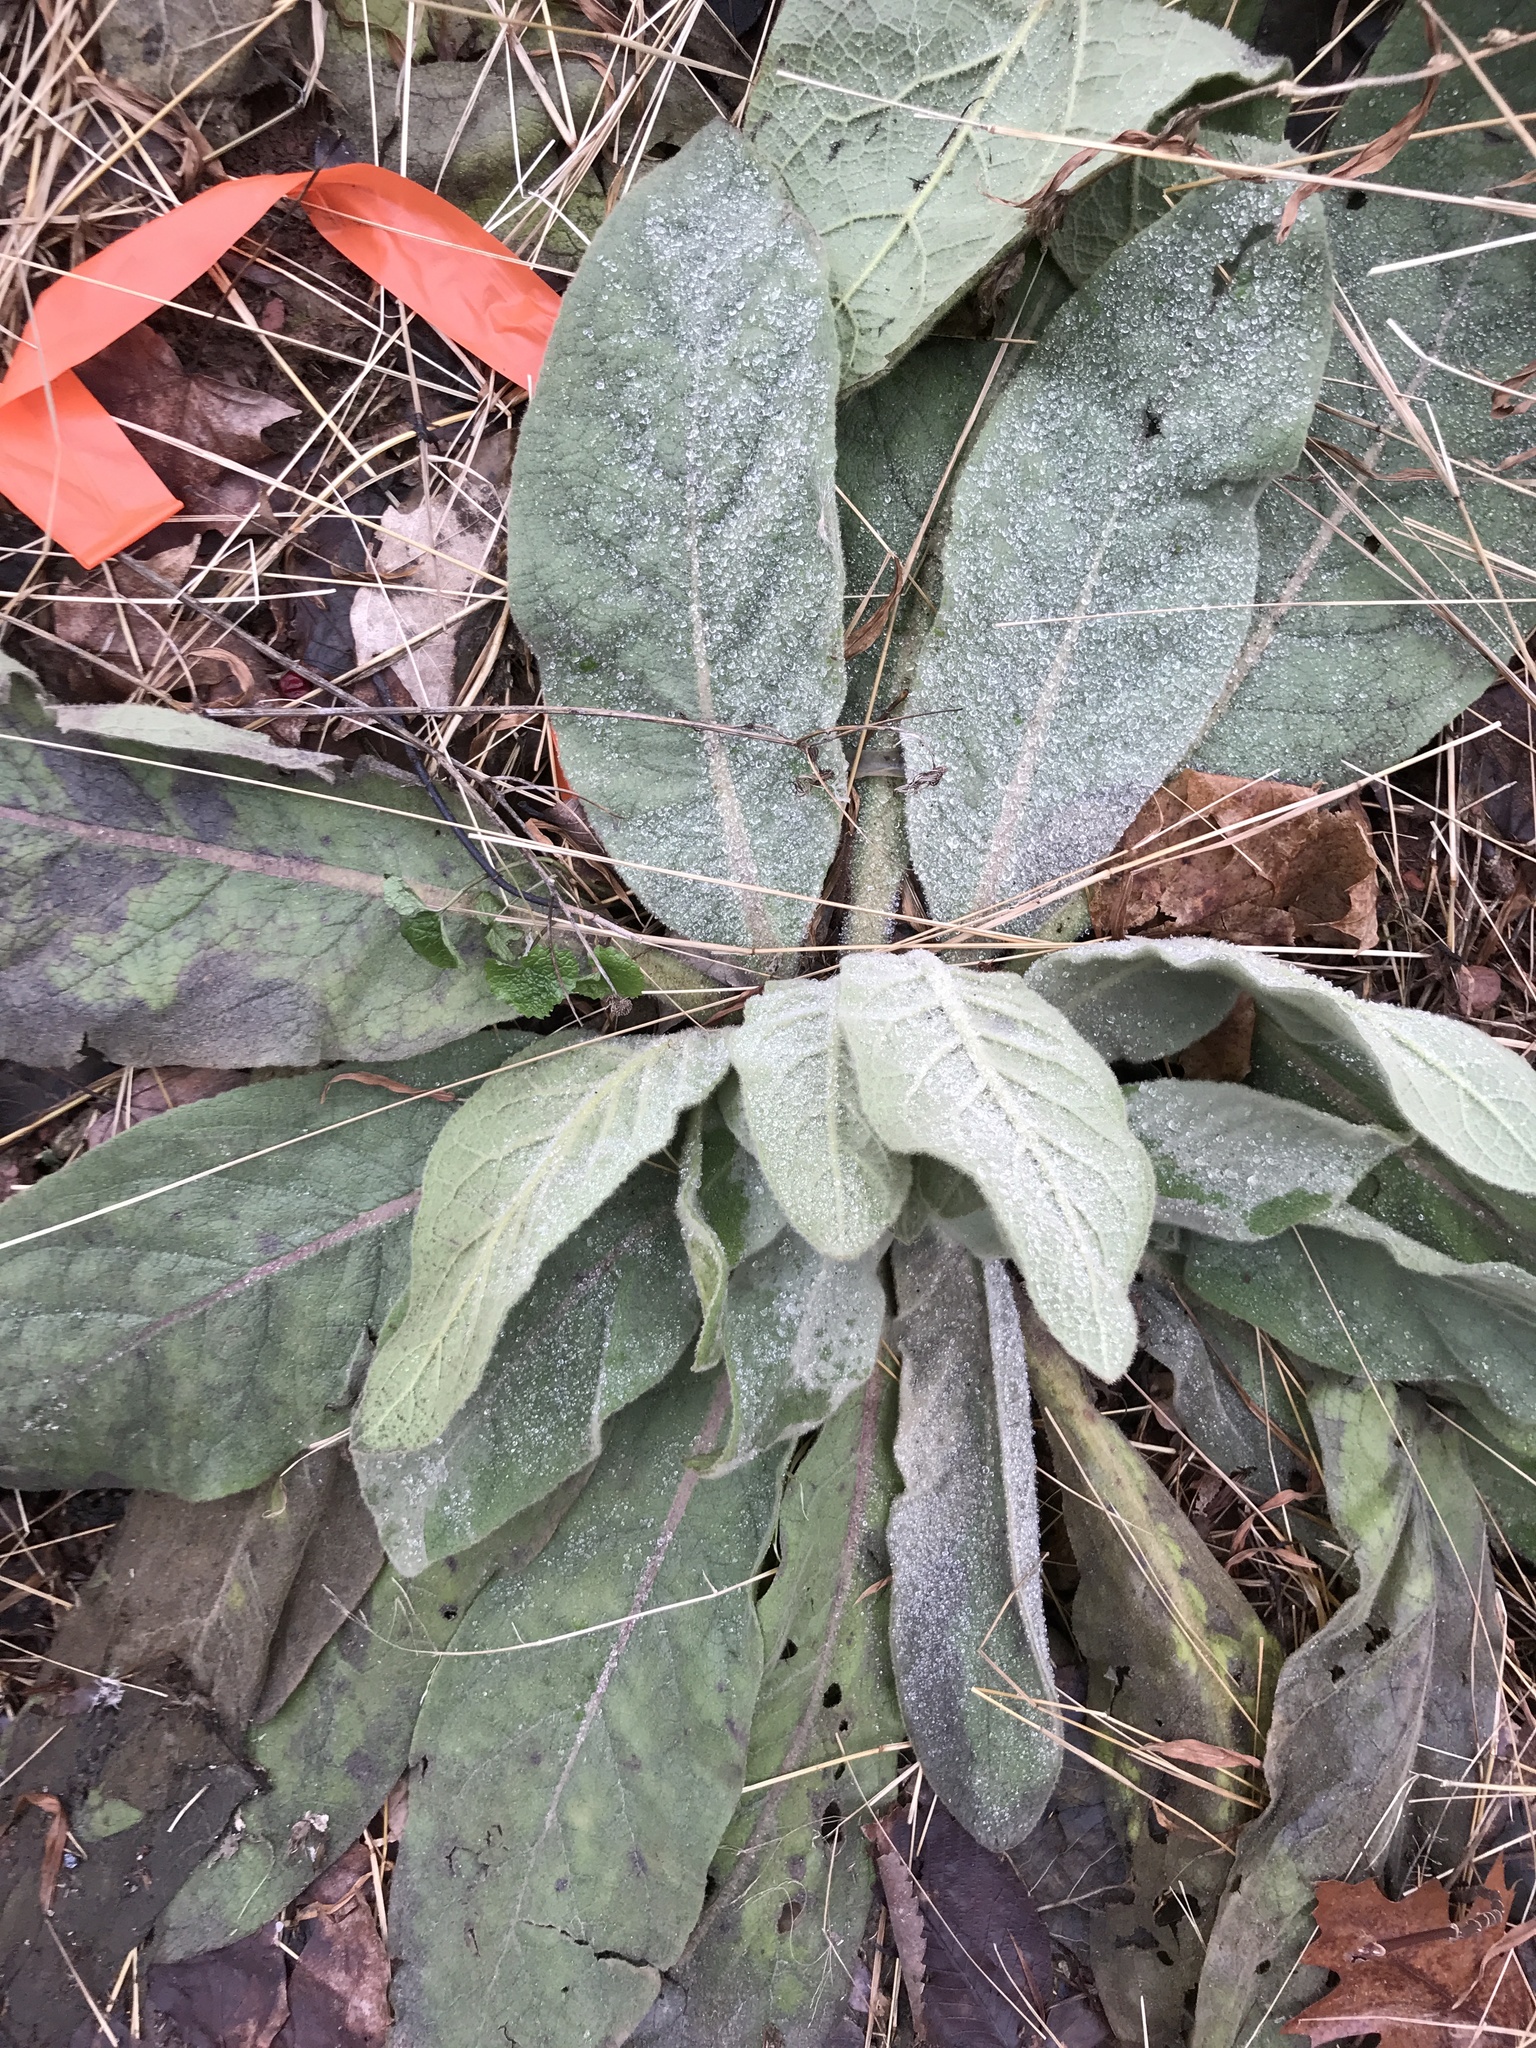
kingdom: Plantae
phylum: Tracheophyta
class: Magnoliopsida
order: Lamiales
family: Scrophulariaceae
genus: Verbascum
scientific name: Verbascum thapsus
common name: Common mullein
